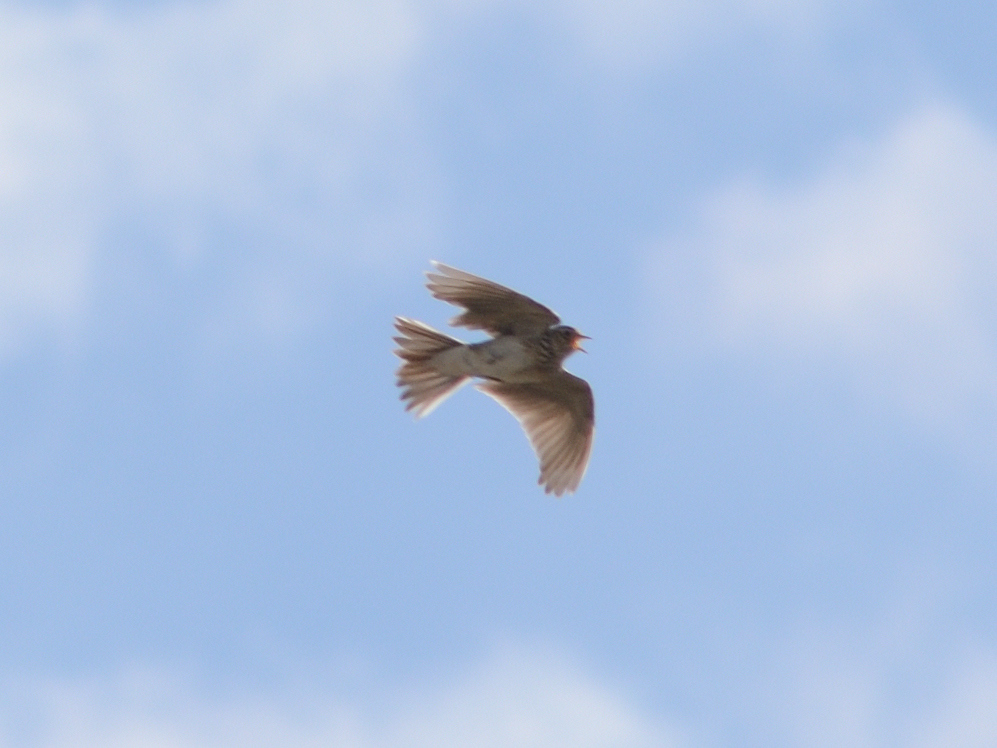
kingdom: Animalia
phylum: Chordata
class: Aves
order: Passeriformes
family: Alaudidae
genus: Alauda
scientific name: Alauda arvensis
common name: Eurasian skylark
